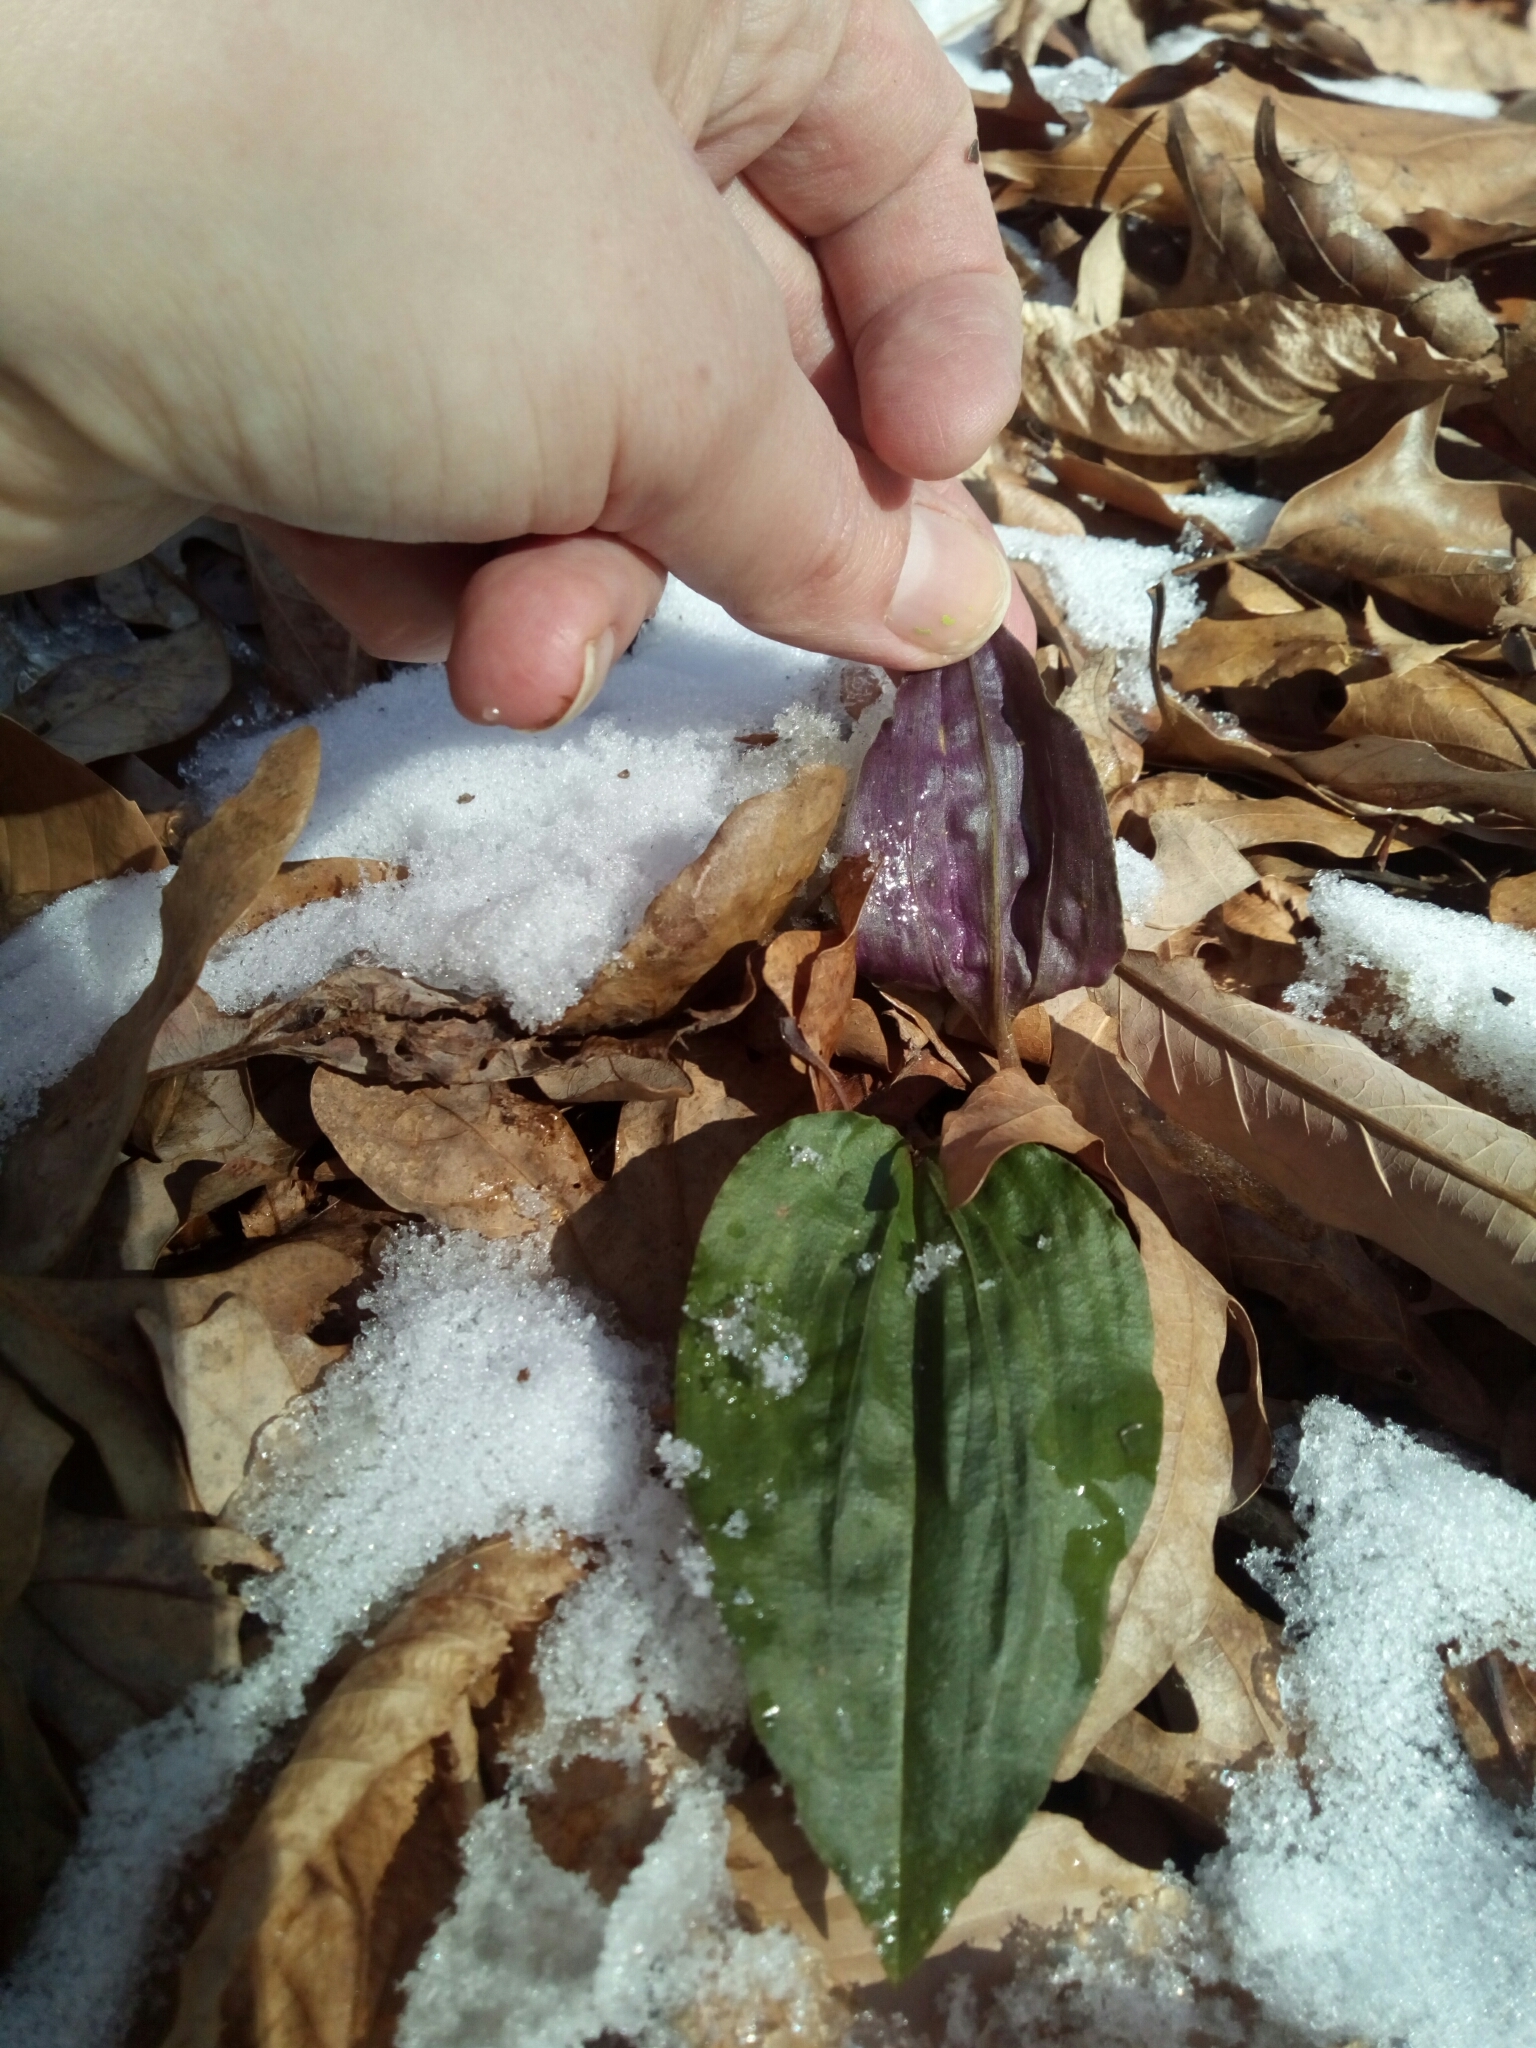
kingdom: Plantae
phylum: Tracheophyta
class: Liliopsida
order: Asparagales
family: Orchidaceae
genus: Tipularia
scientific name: Tipularia discolor
